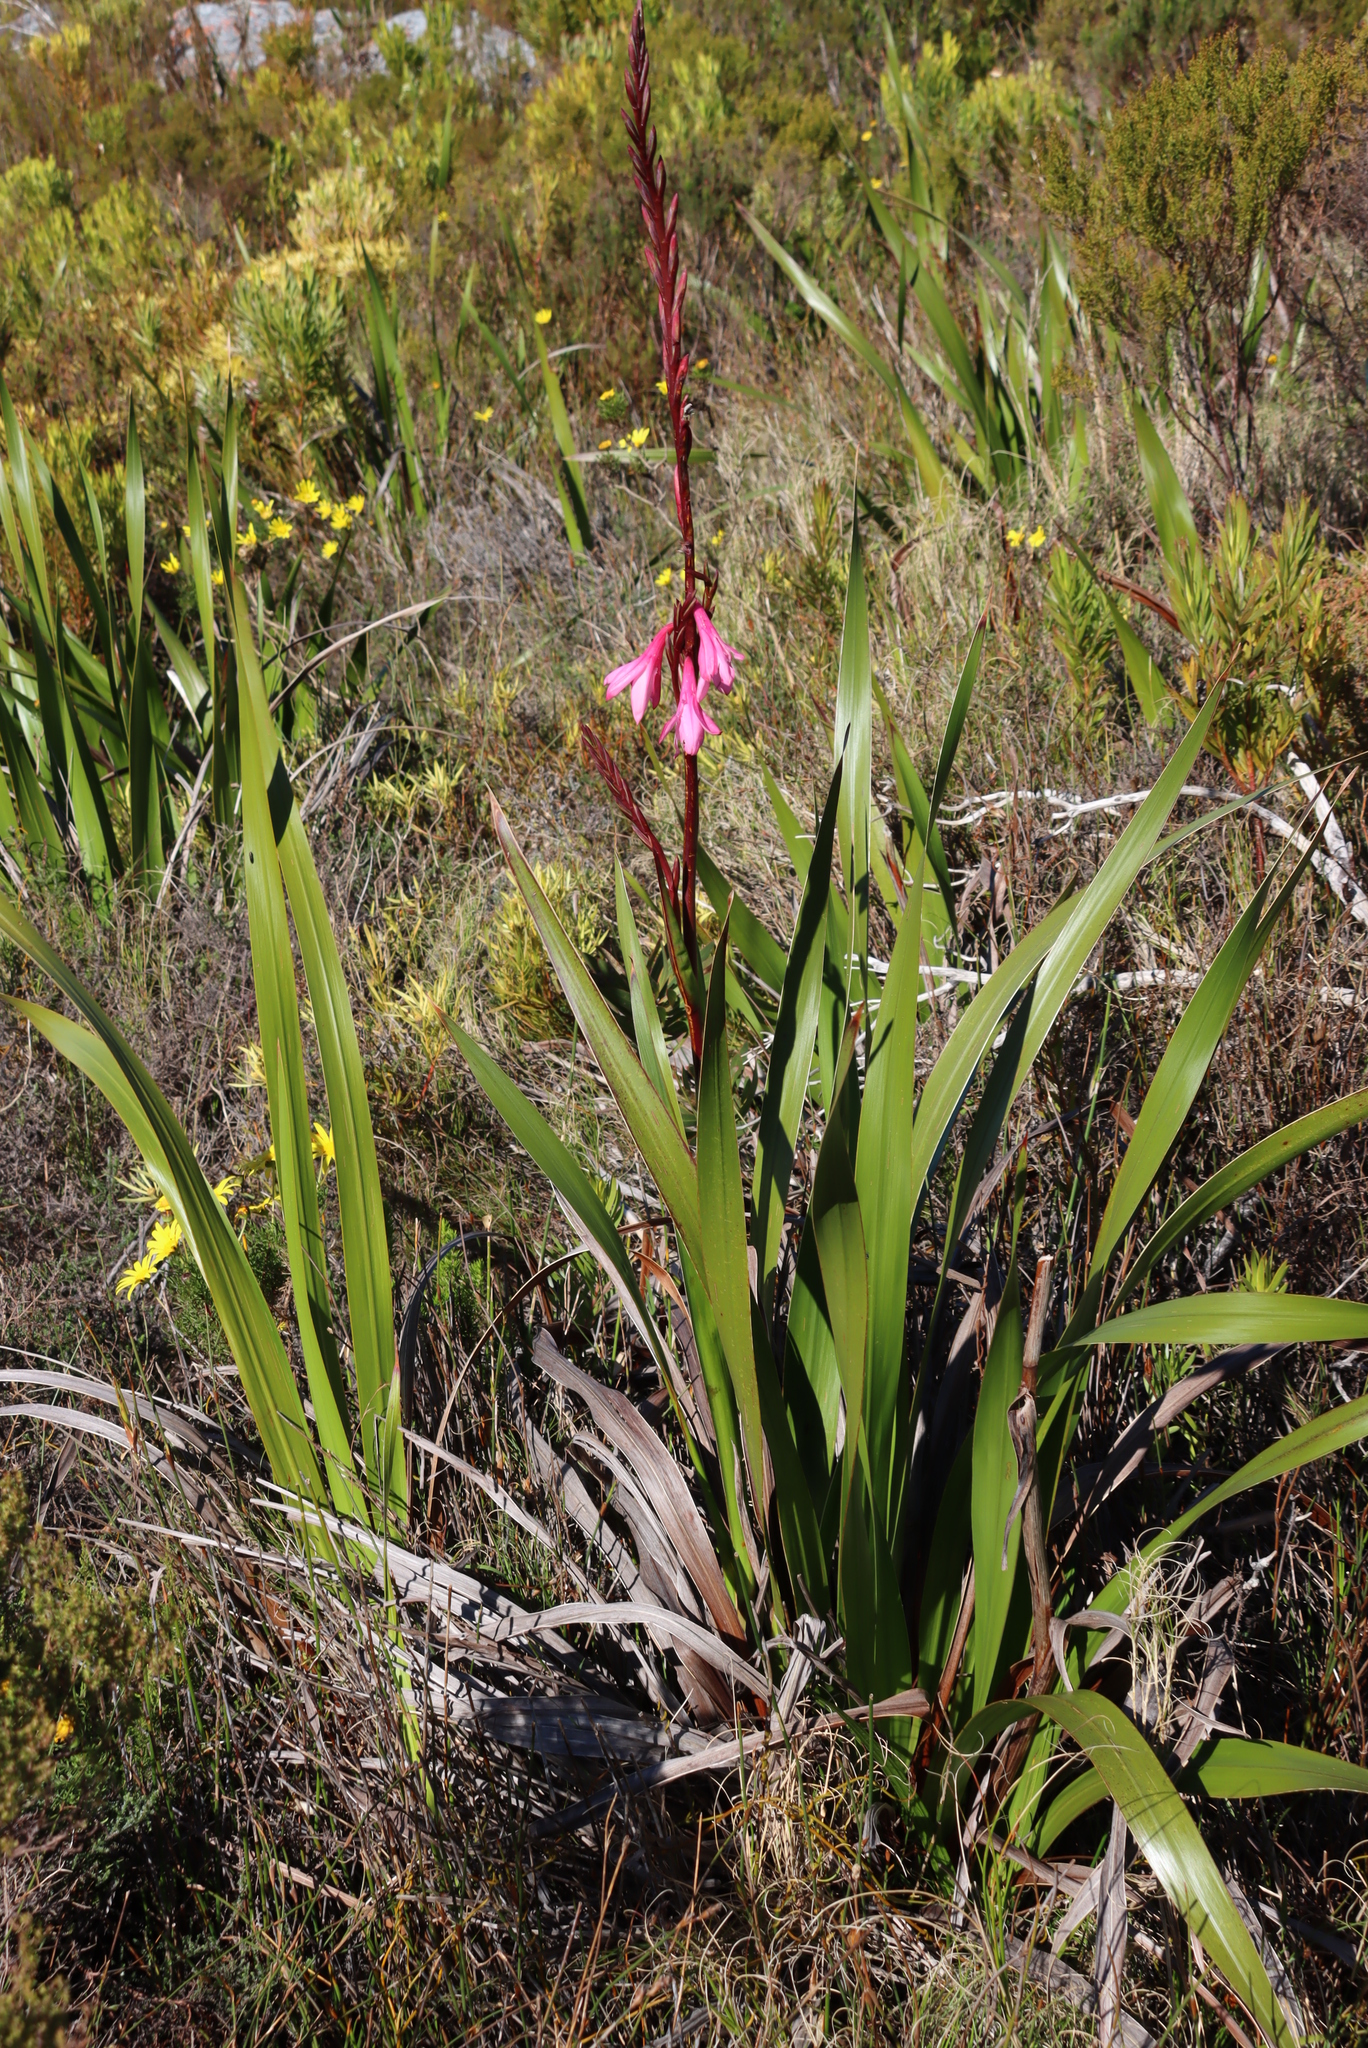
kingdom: Plantae
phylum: Tracheophyta
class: Liliopsida
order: Asparagales
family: Iridaceae
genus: Watsonia
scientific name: Watsonia borbonica
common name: Bugle-lily
